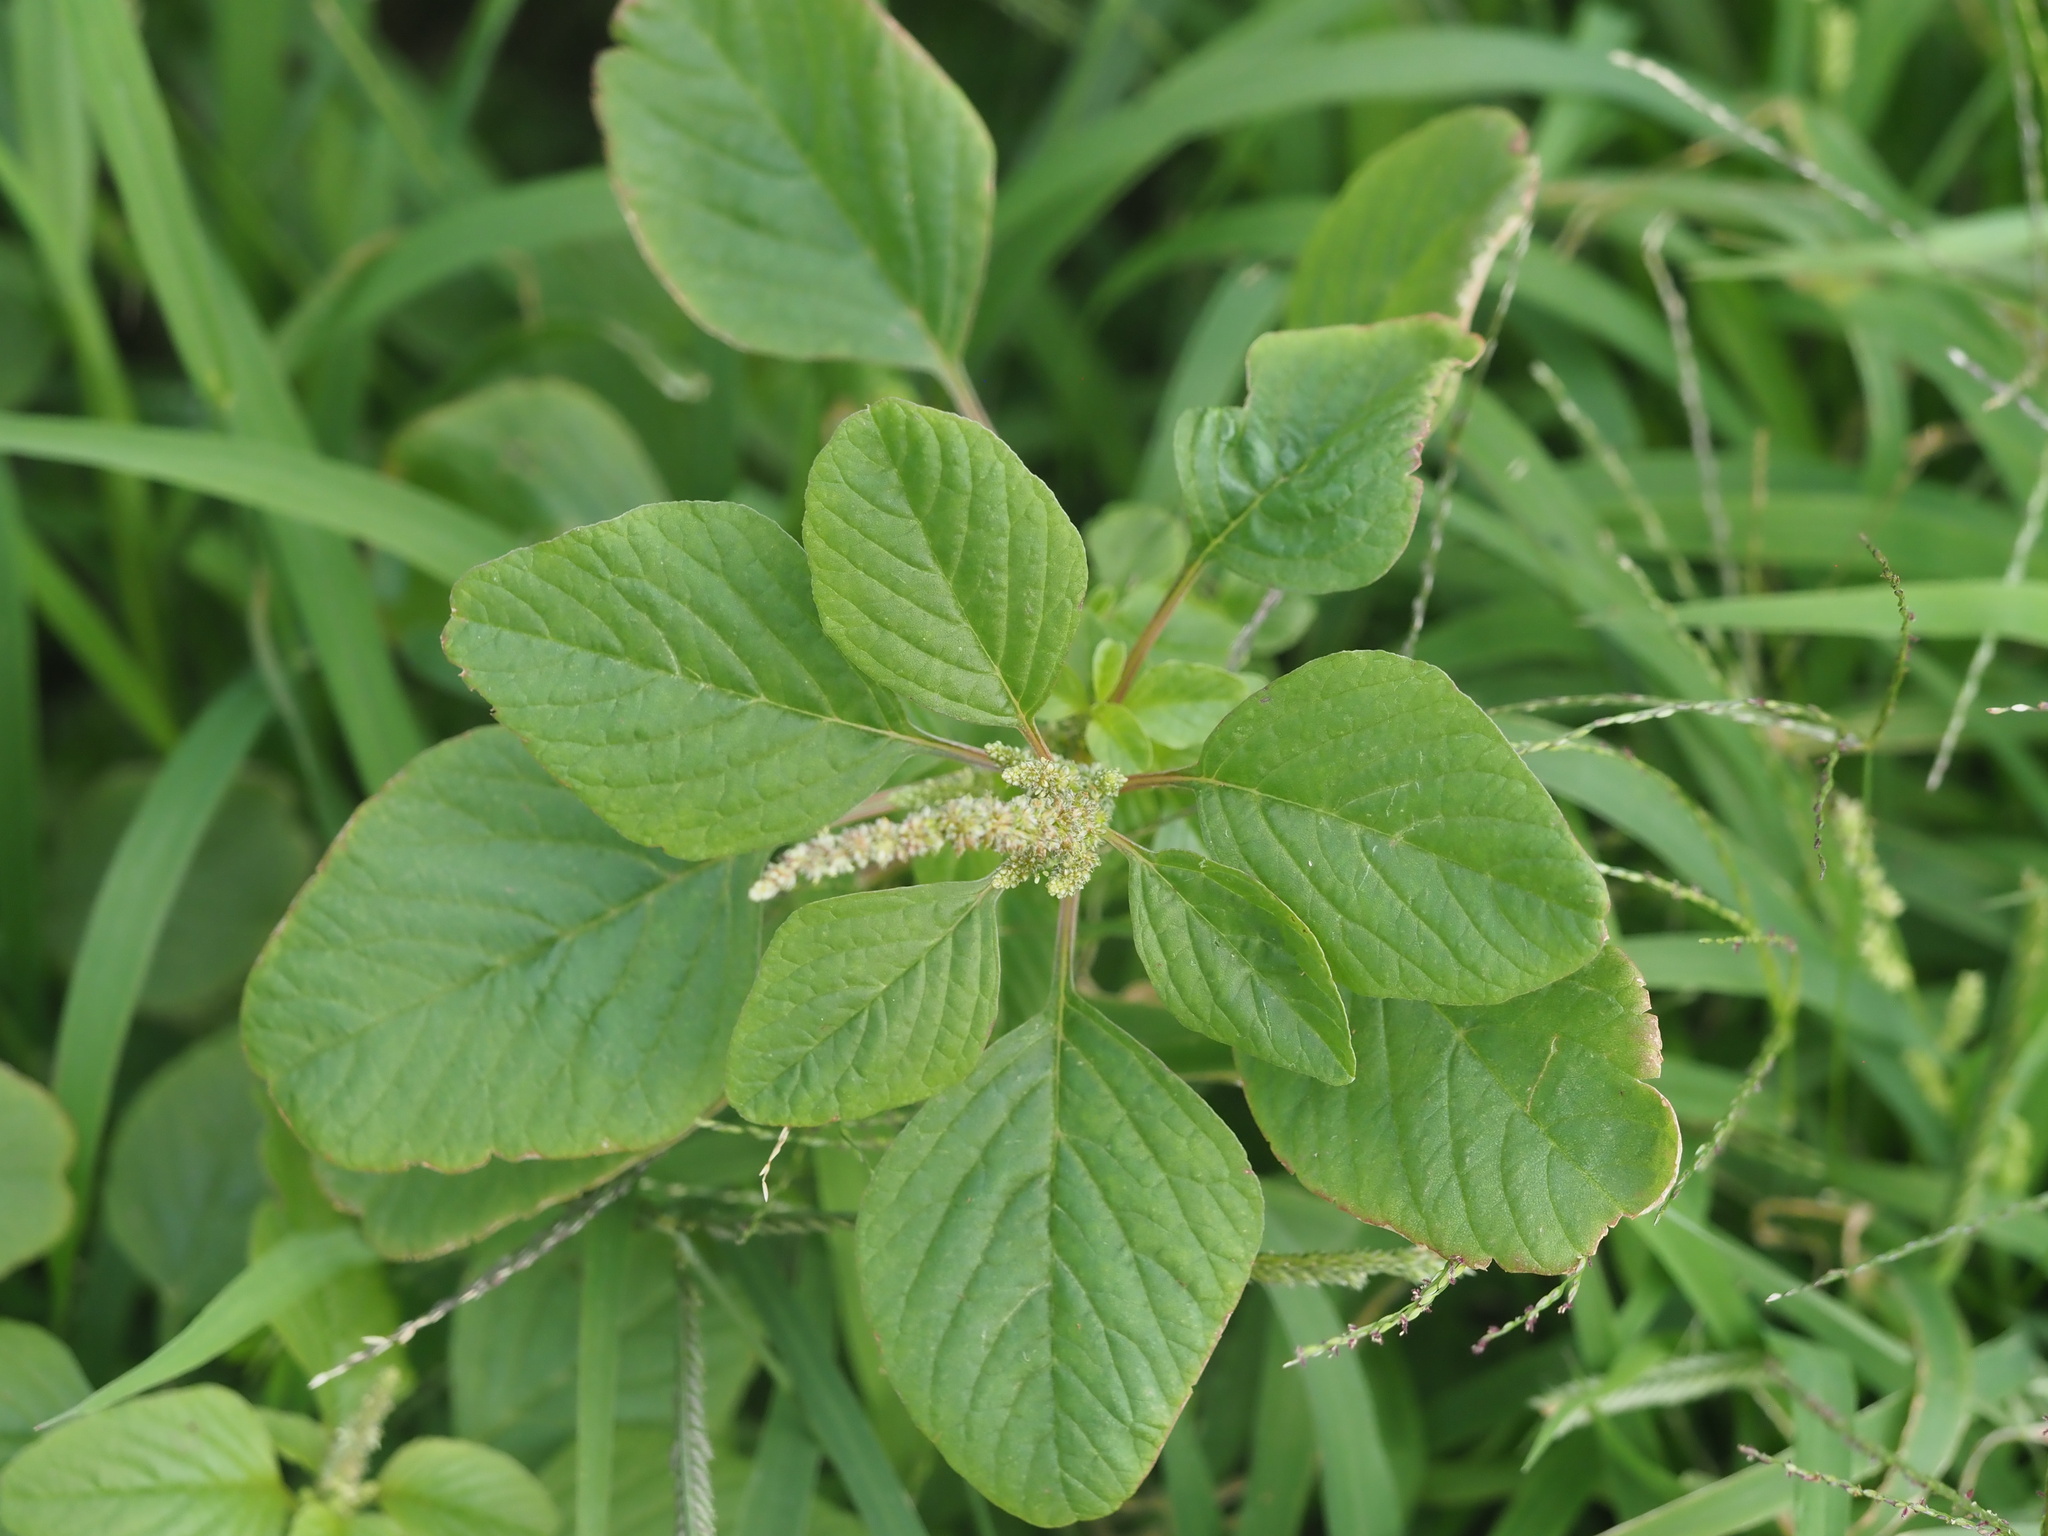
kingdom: Plantae
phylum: Tracheophyta
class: Magnoliopsida
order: Caryophyllales
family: Amaranthaceae
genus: Amaranthus
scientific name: Amaranthus blitum
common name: Purple amaranth
